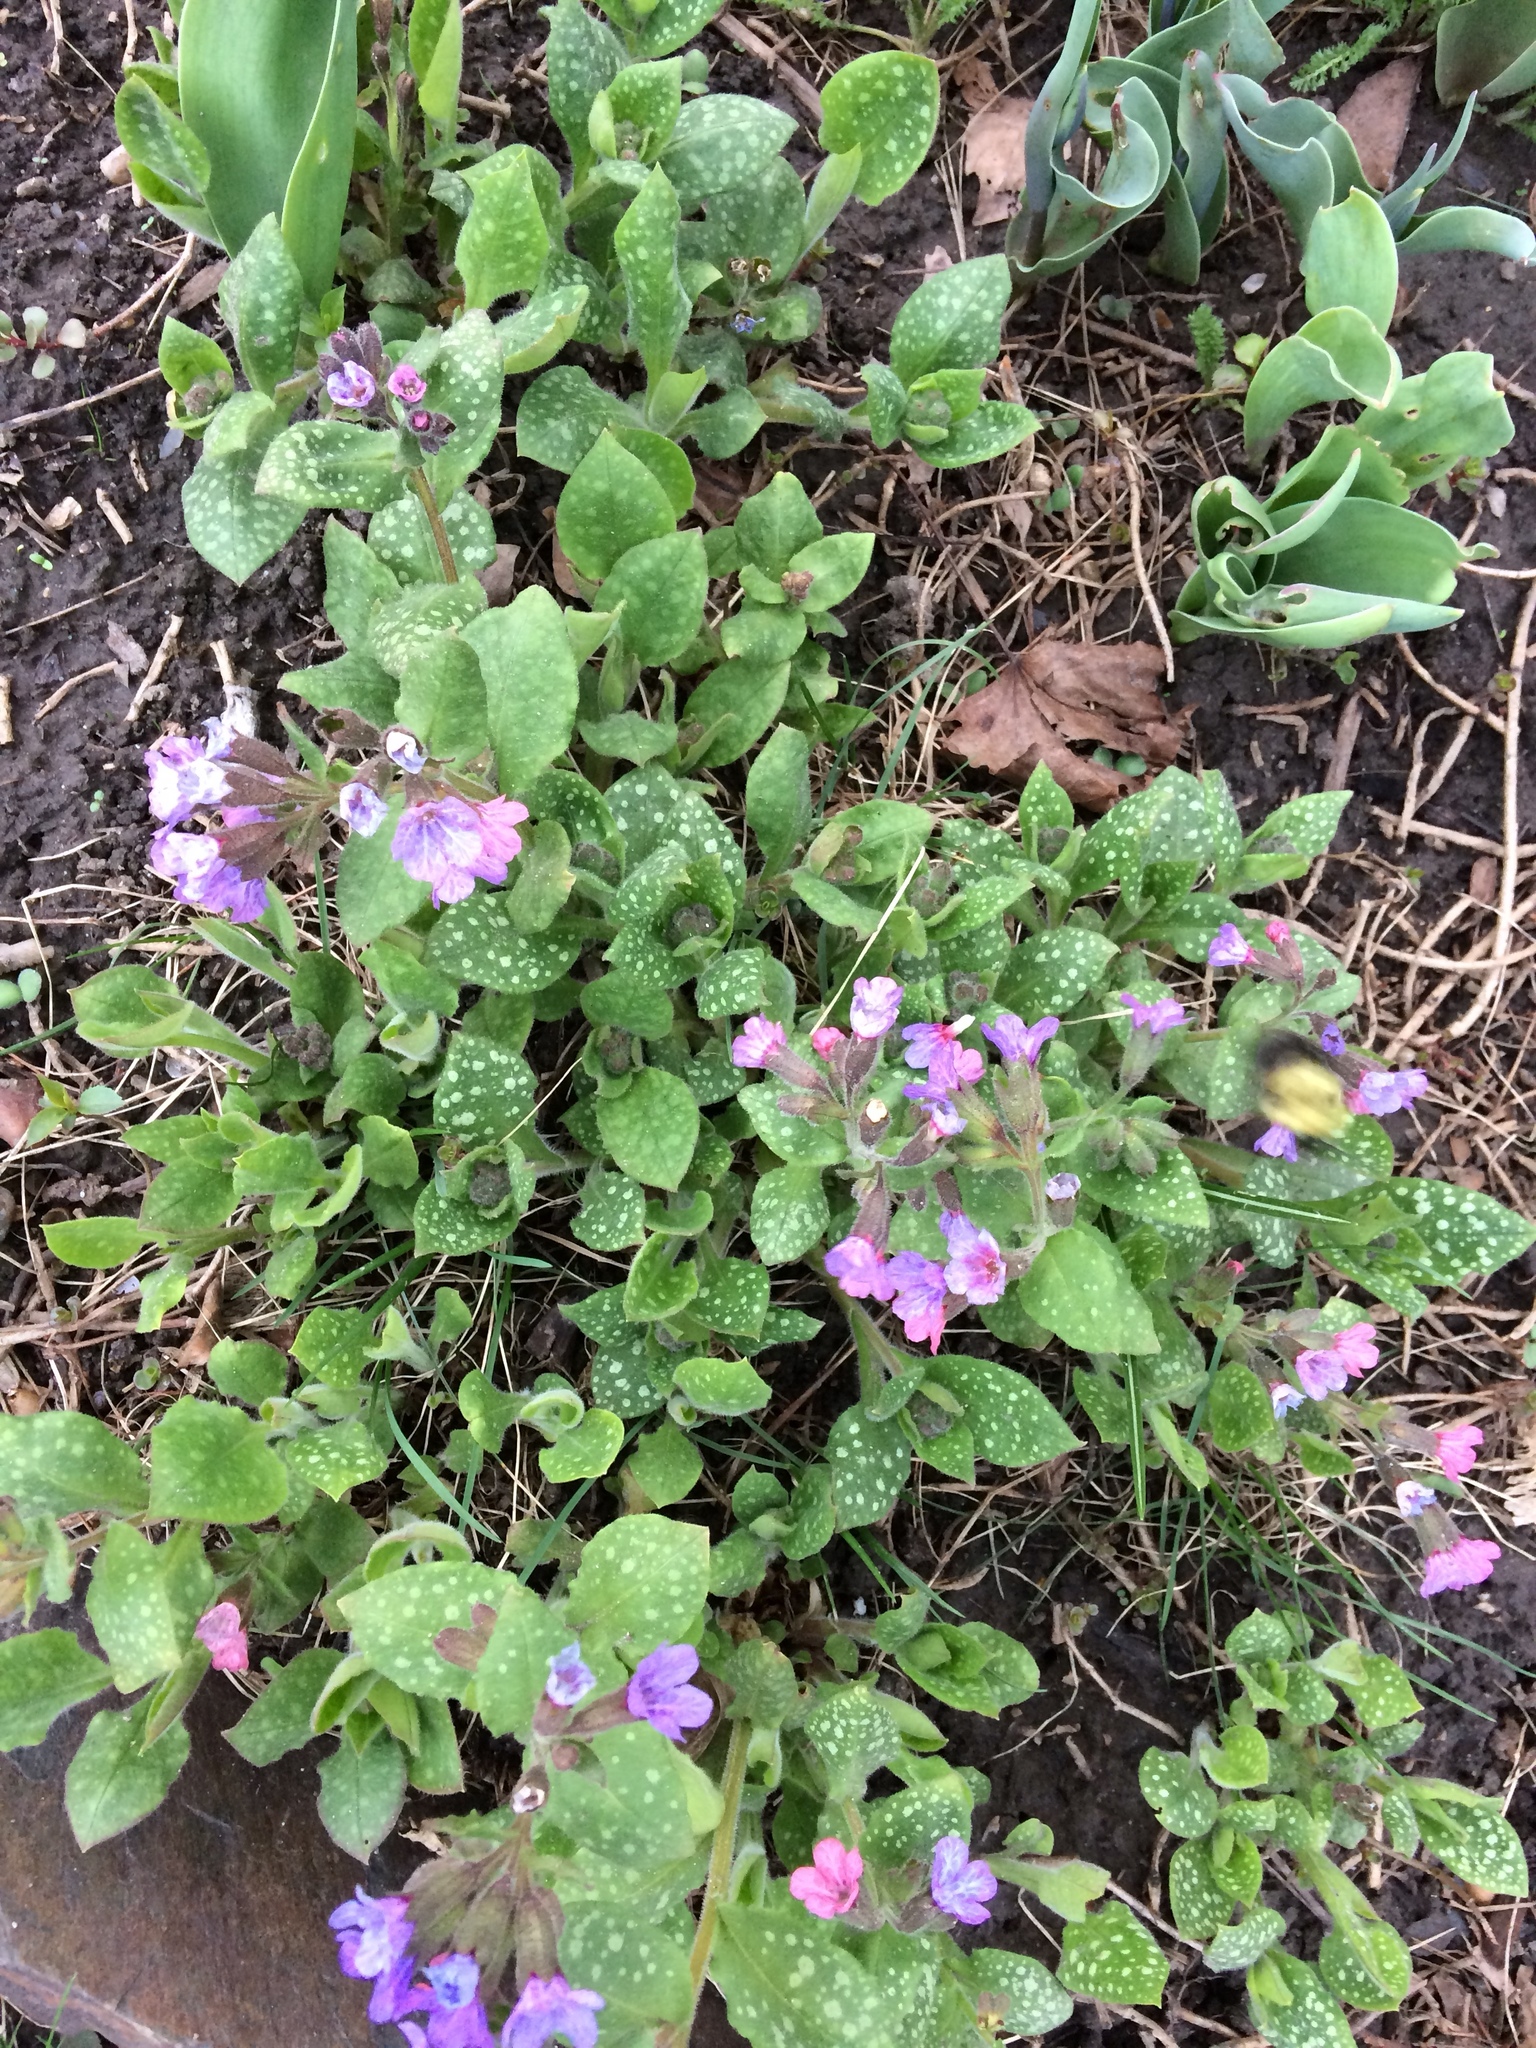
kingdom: Animalia
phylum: Arthropoda
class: Insecta
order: Hymenoptera
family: Apidae
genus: Bombus
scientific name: Bombus
